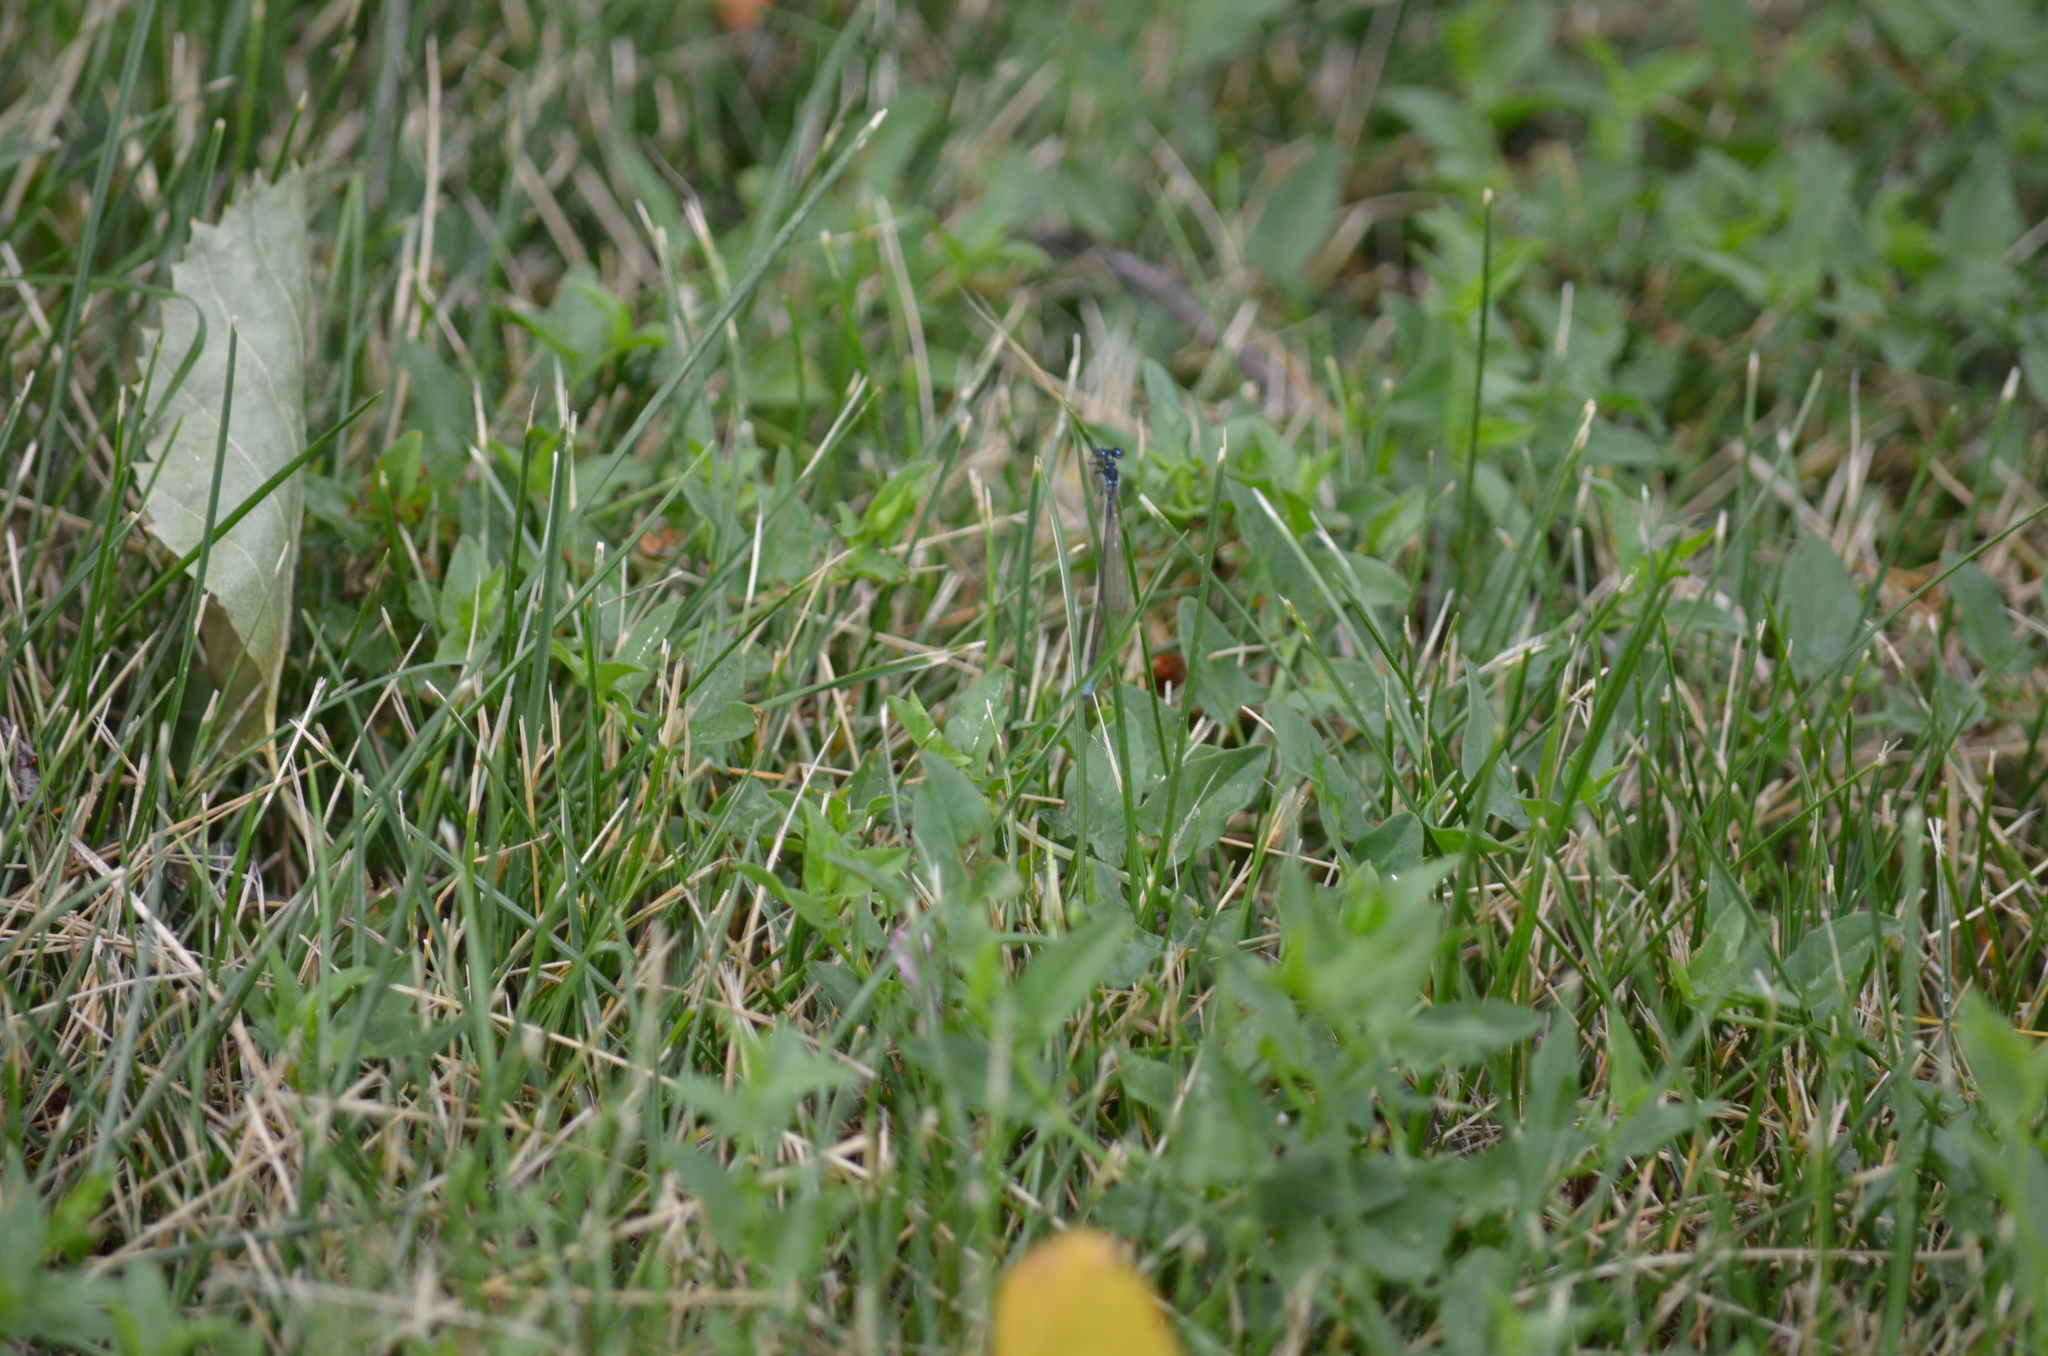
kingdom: Animalia
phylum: Arthropoda
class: Insecta
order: Odonata
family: Coenagrionidae
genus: Ischnura
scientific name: Ischnura cervula
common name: Pacific forktail
